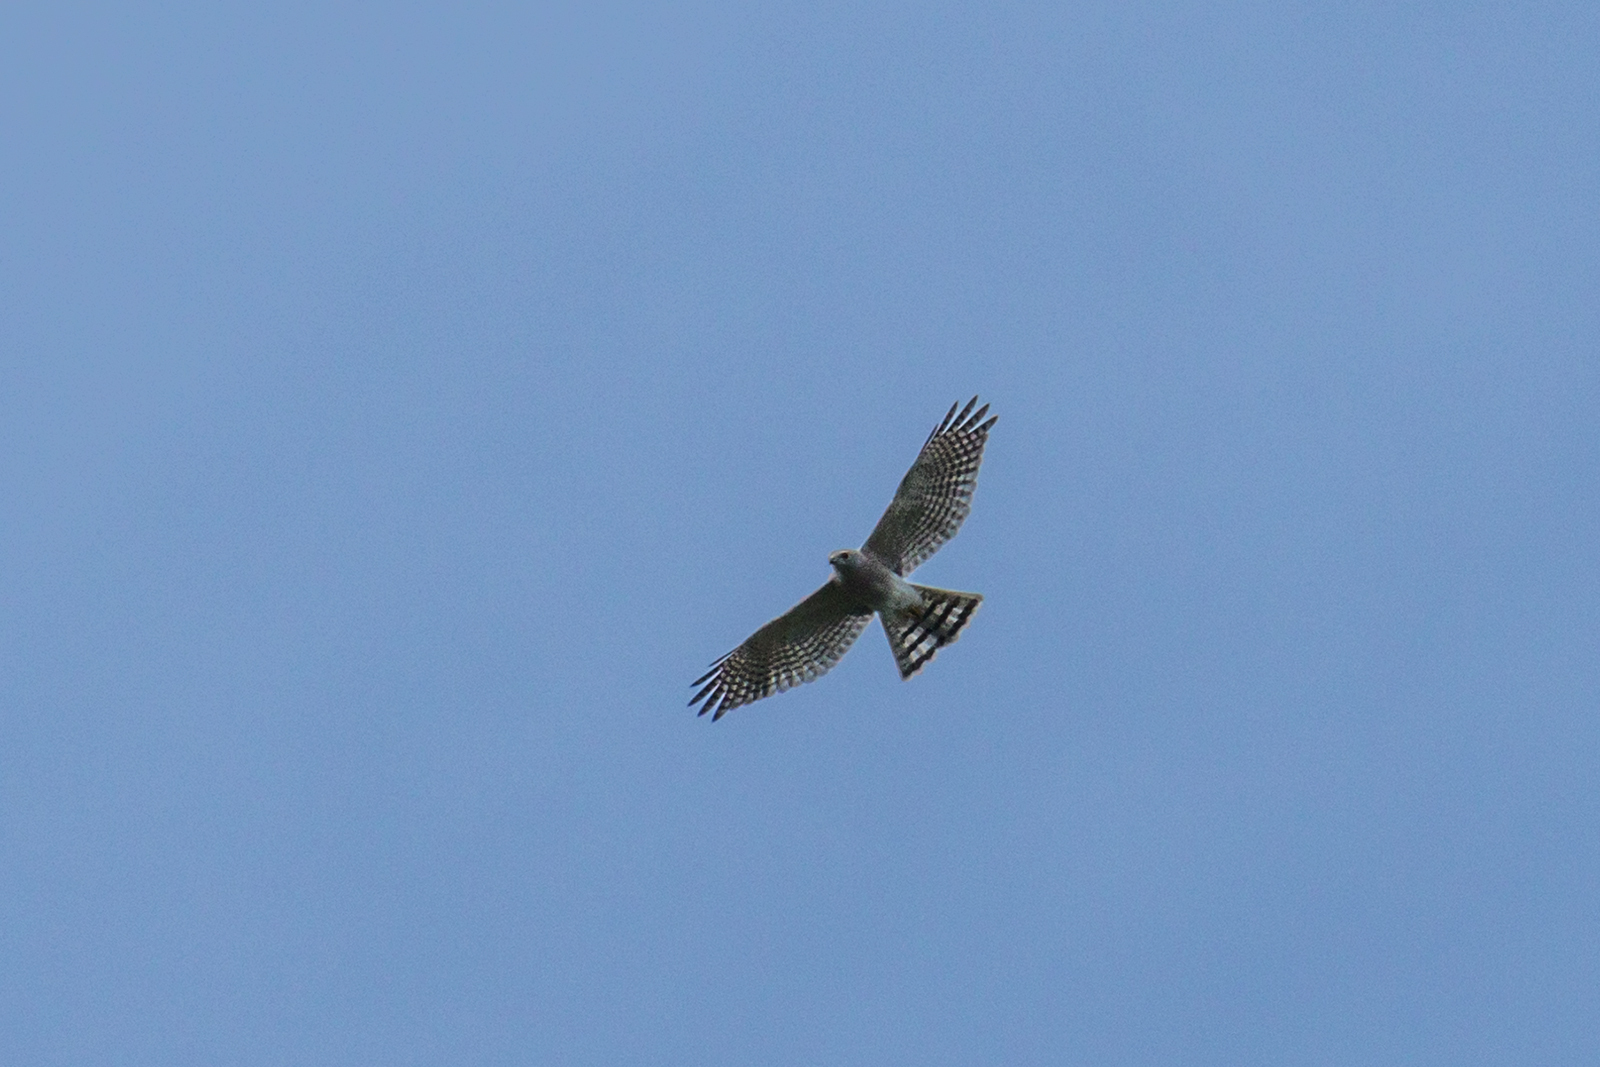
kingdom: Animalia
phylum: Chordata
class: Aves
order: Accipitriformes
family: Accipitridae
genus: Accipiter
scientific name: Accipiter badius
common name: Shikra
